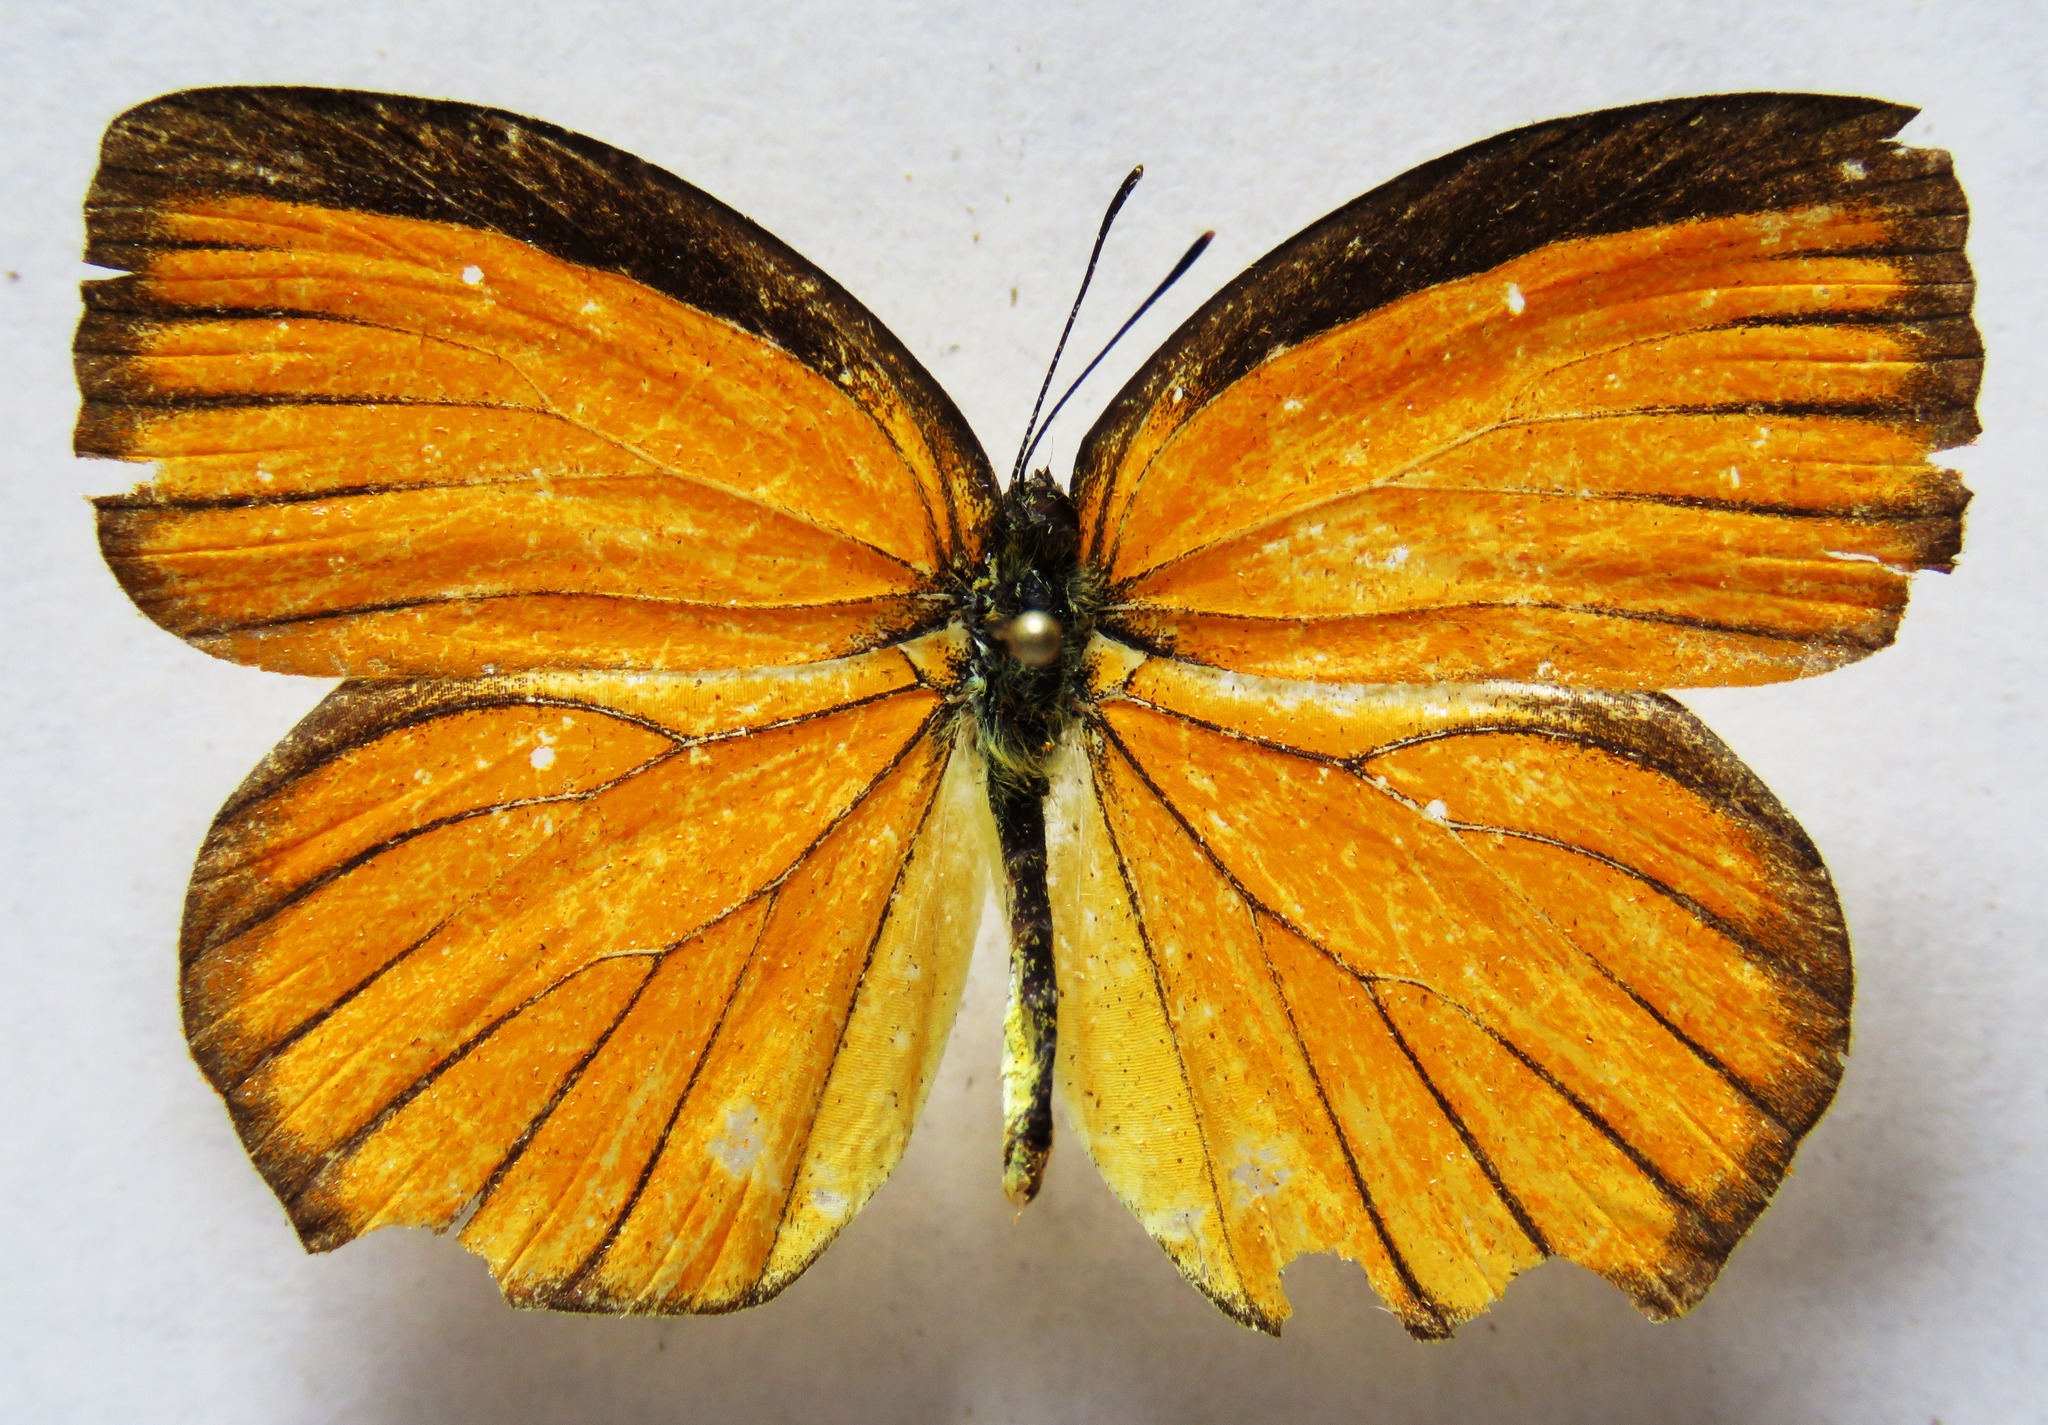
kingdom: Animalia
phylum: Arthropoda
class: Insecta
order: Lepidoptera
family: Pieridae
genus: Pyrisitia
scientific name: Pyrisitia proterpia
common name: Tailed orange
